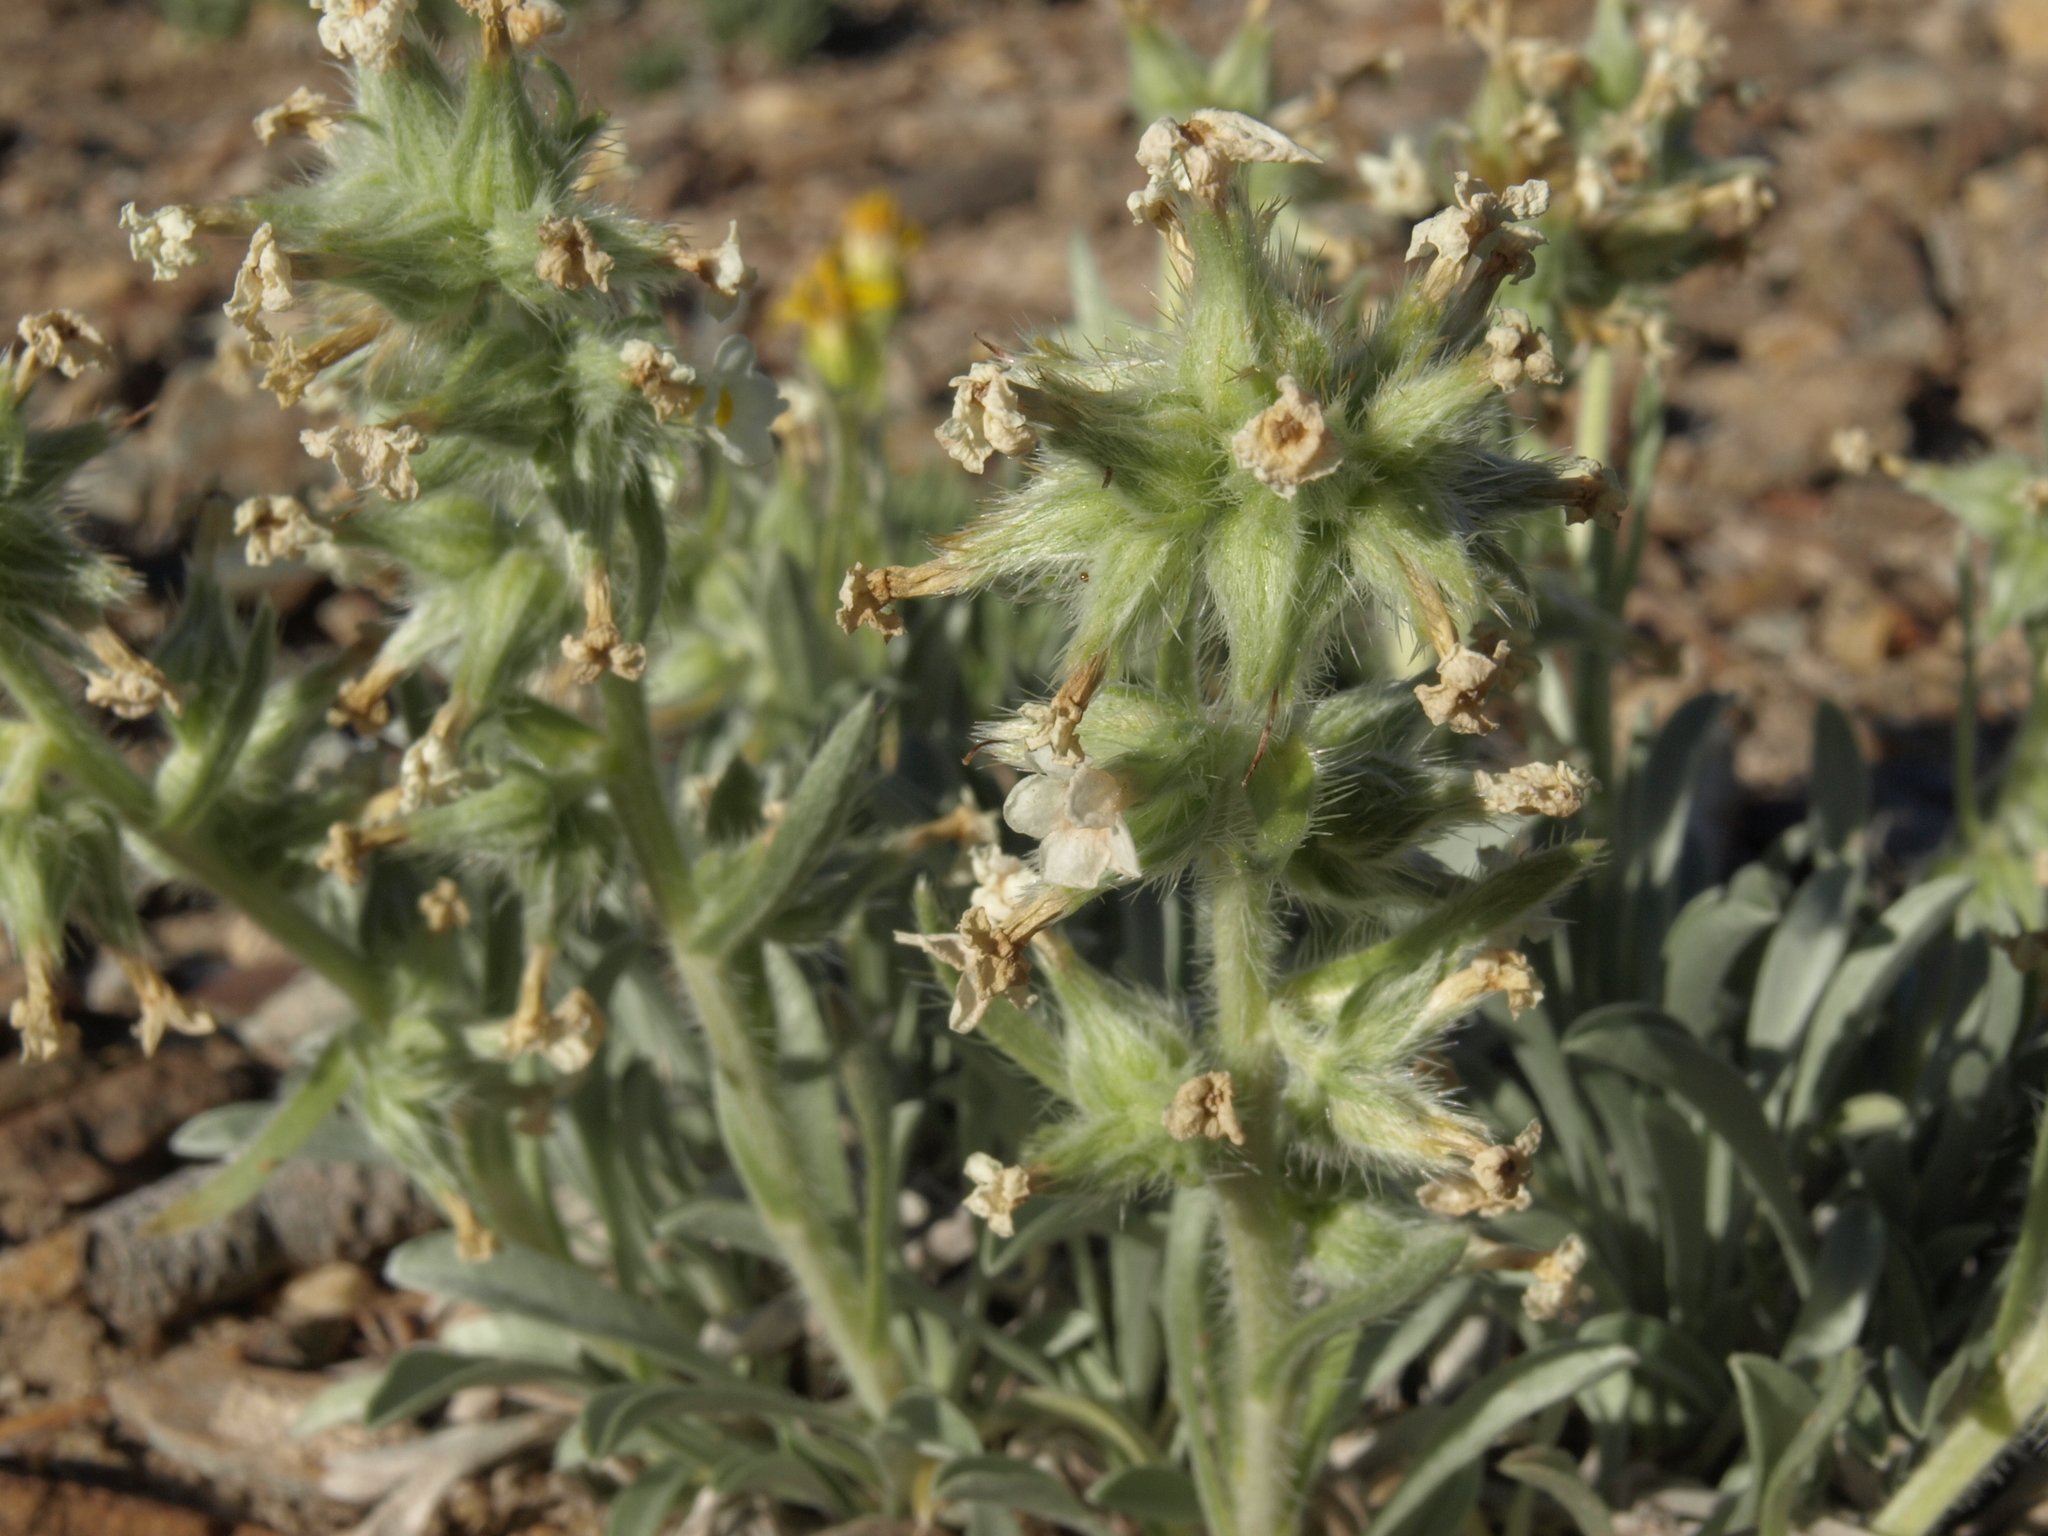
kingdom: Plantae
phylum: Tracheophyta
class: Magnoliopsida
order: Boraginales
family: Boraginaceae
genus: Oreocarya
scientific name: Oreocarya flavoculata
